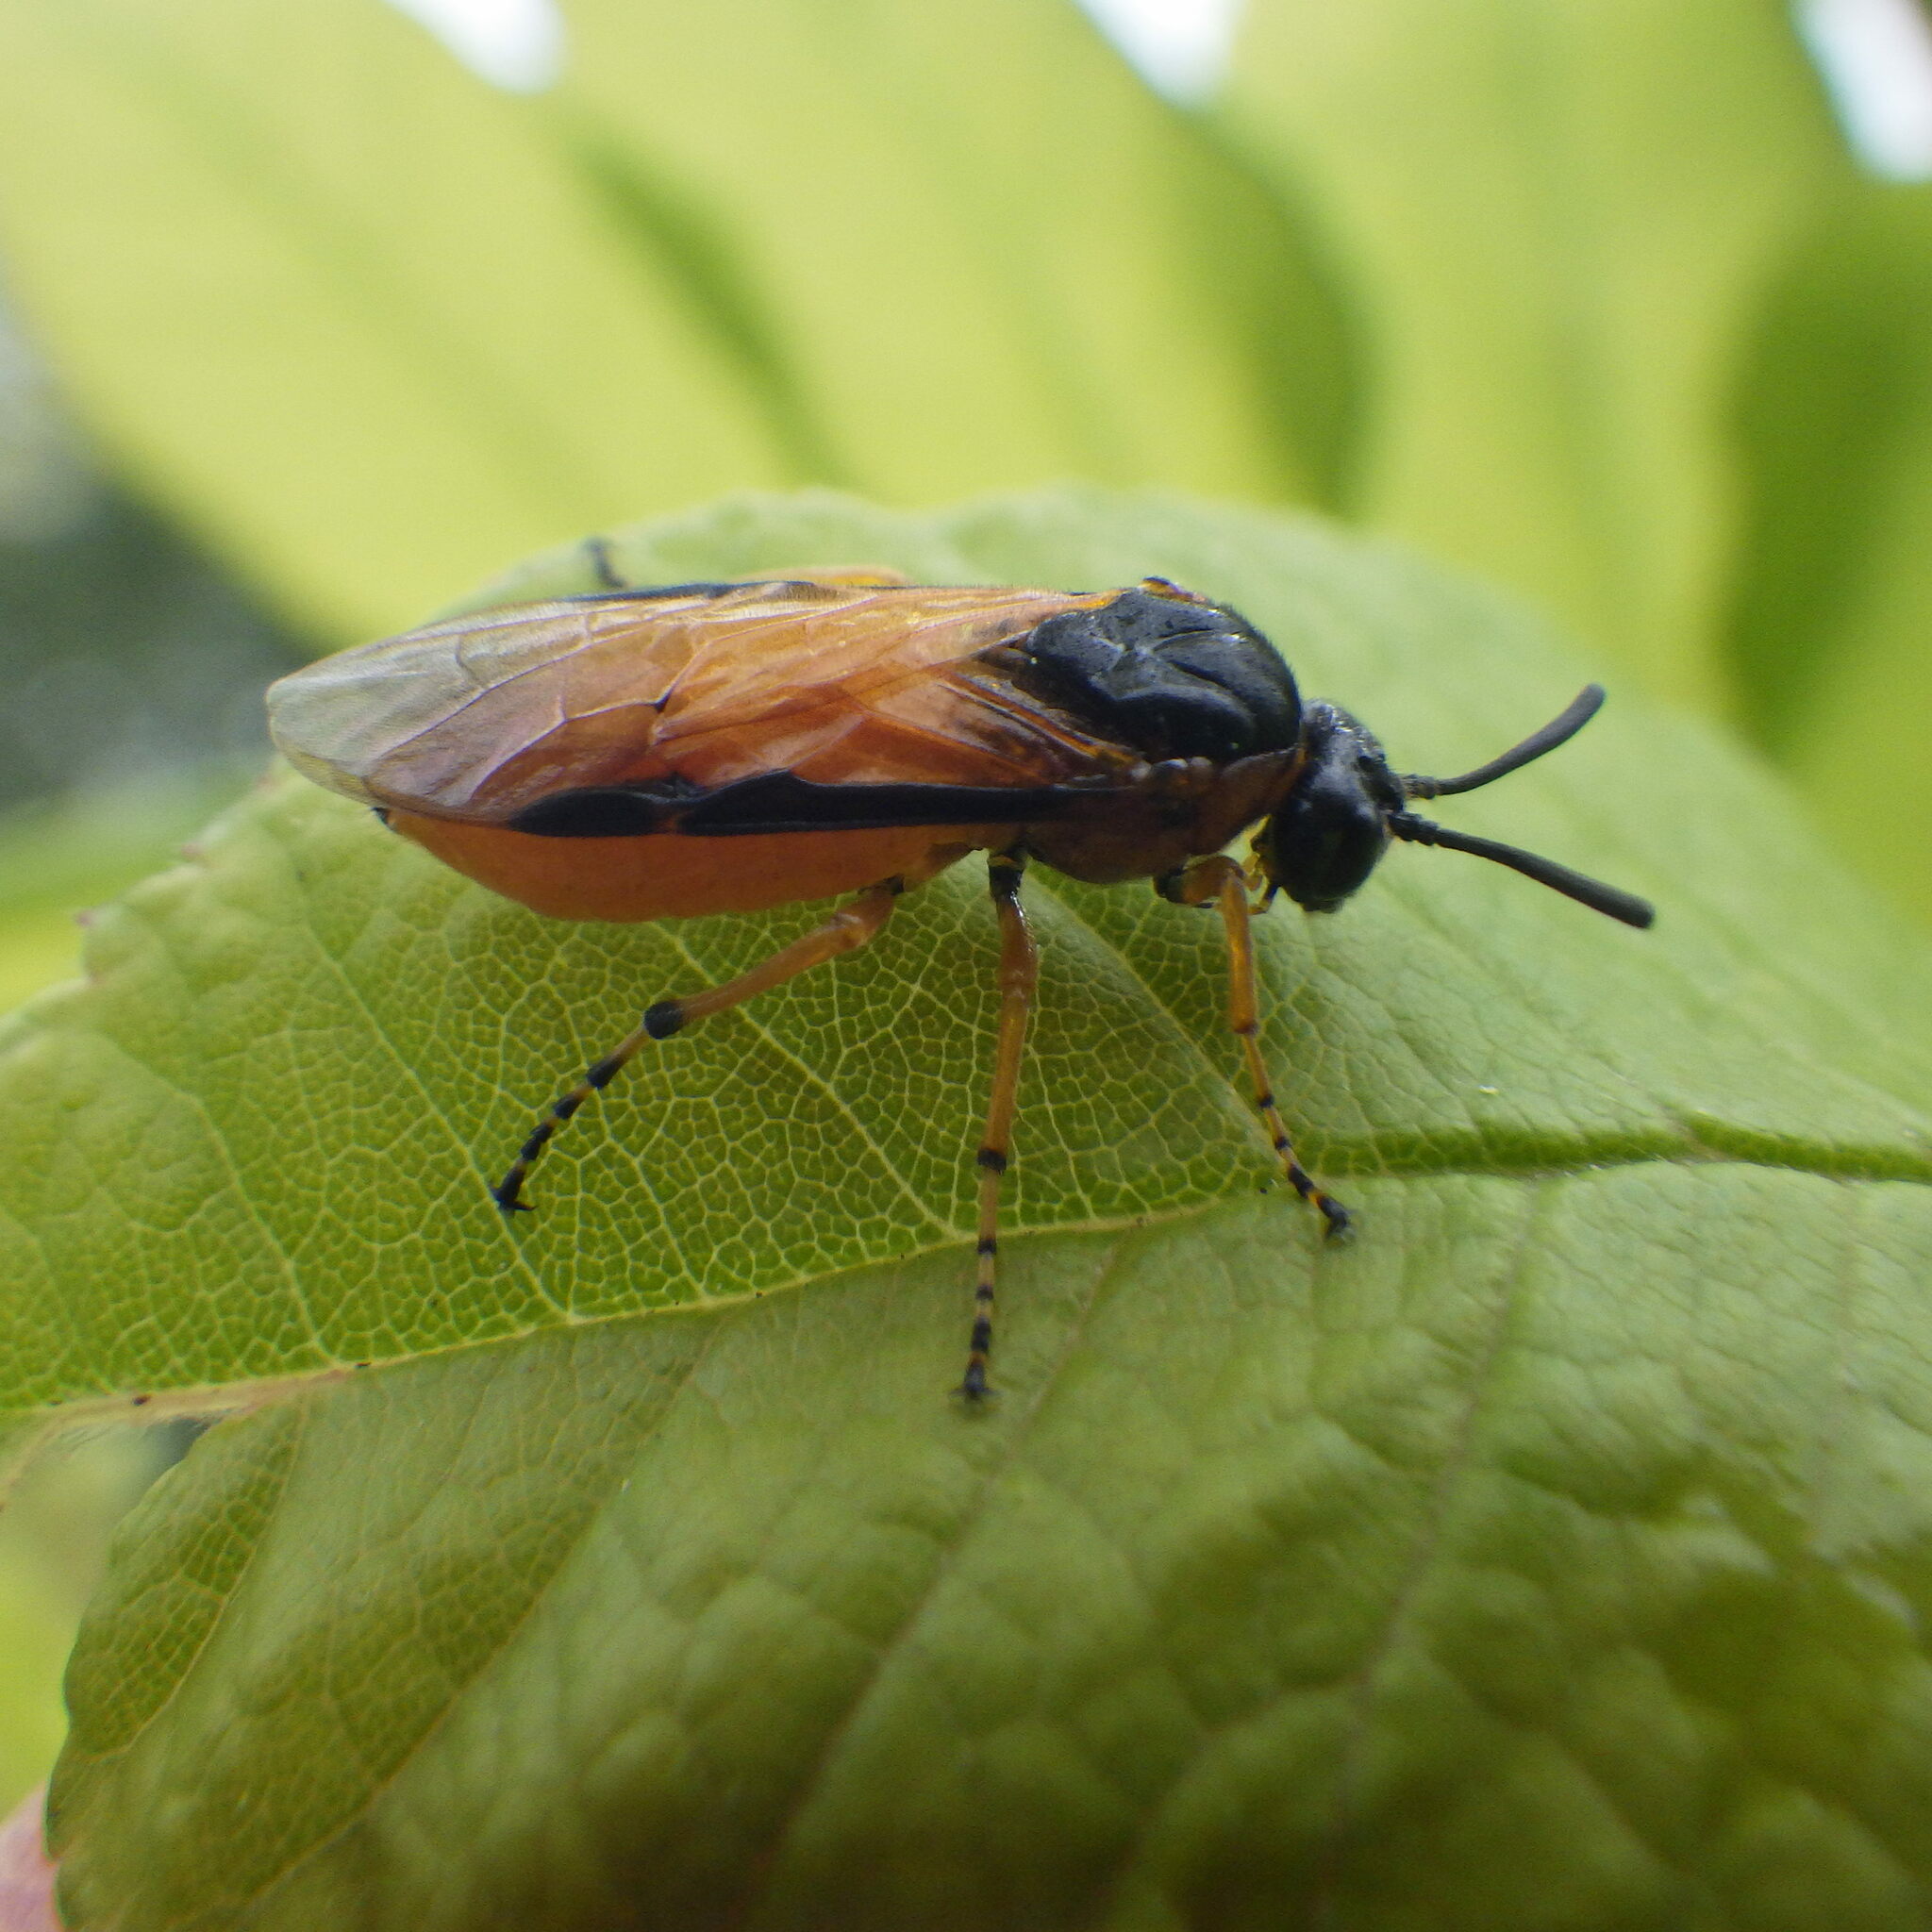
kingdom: Animalia
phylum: Arthropoda
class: Insecta
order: Hymenoptera
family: Argidae
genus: Arge
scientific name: Arge ochropus
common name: Argid sawfly
